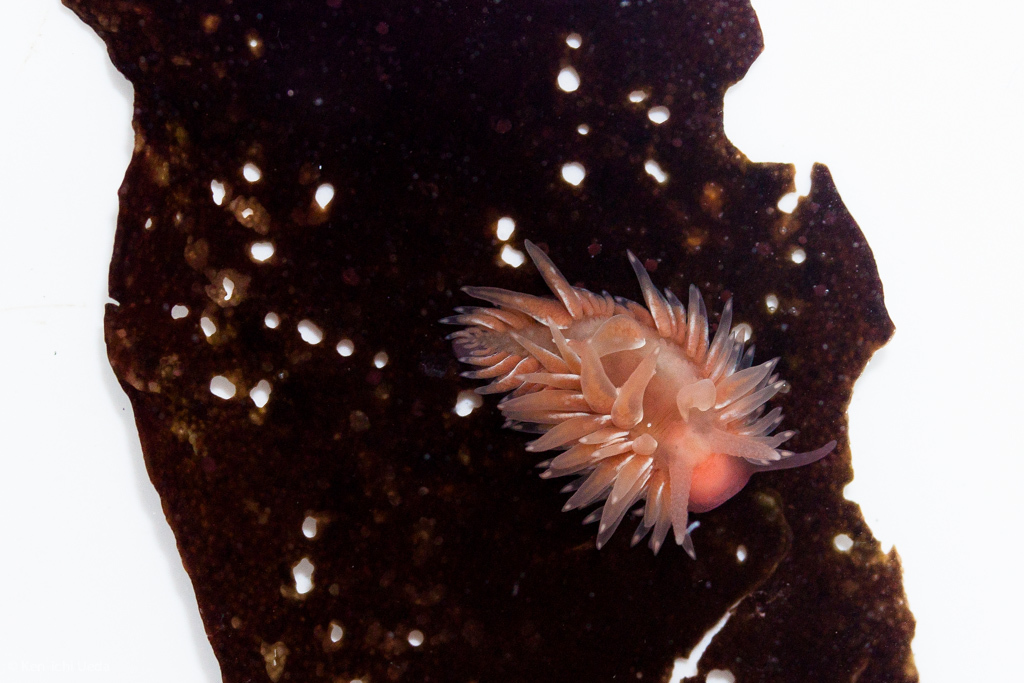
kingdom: Animalia
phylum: Mollusca
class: Gastropoda
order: Nudibranchia
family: Aeolidiidae
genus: Aeolidia
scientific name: Aeolidia loui
